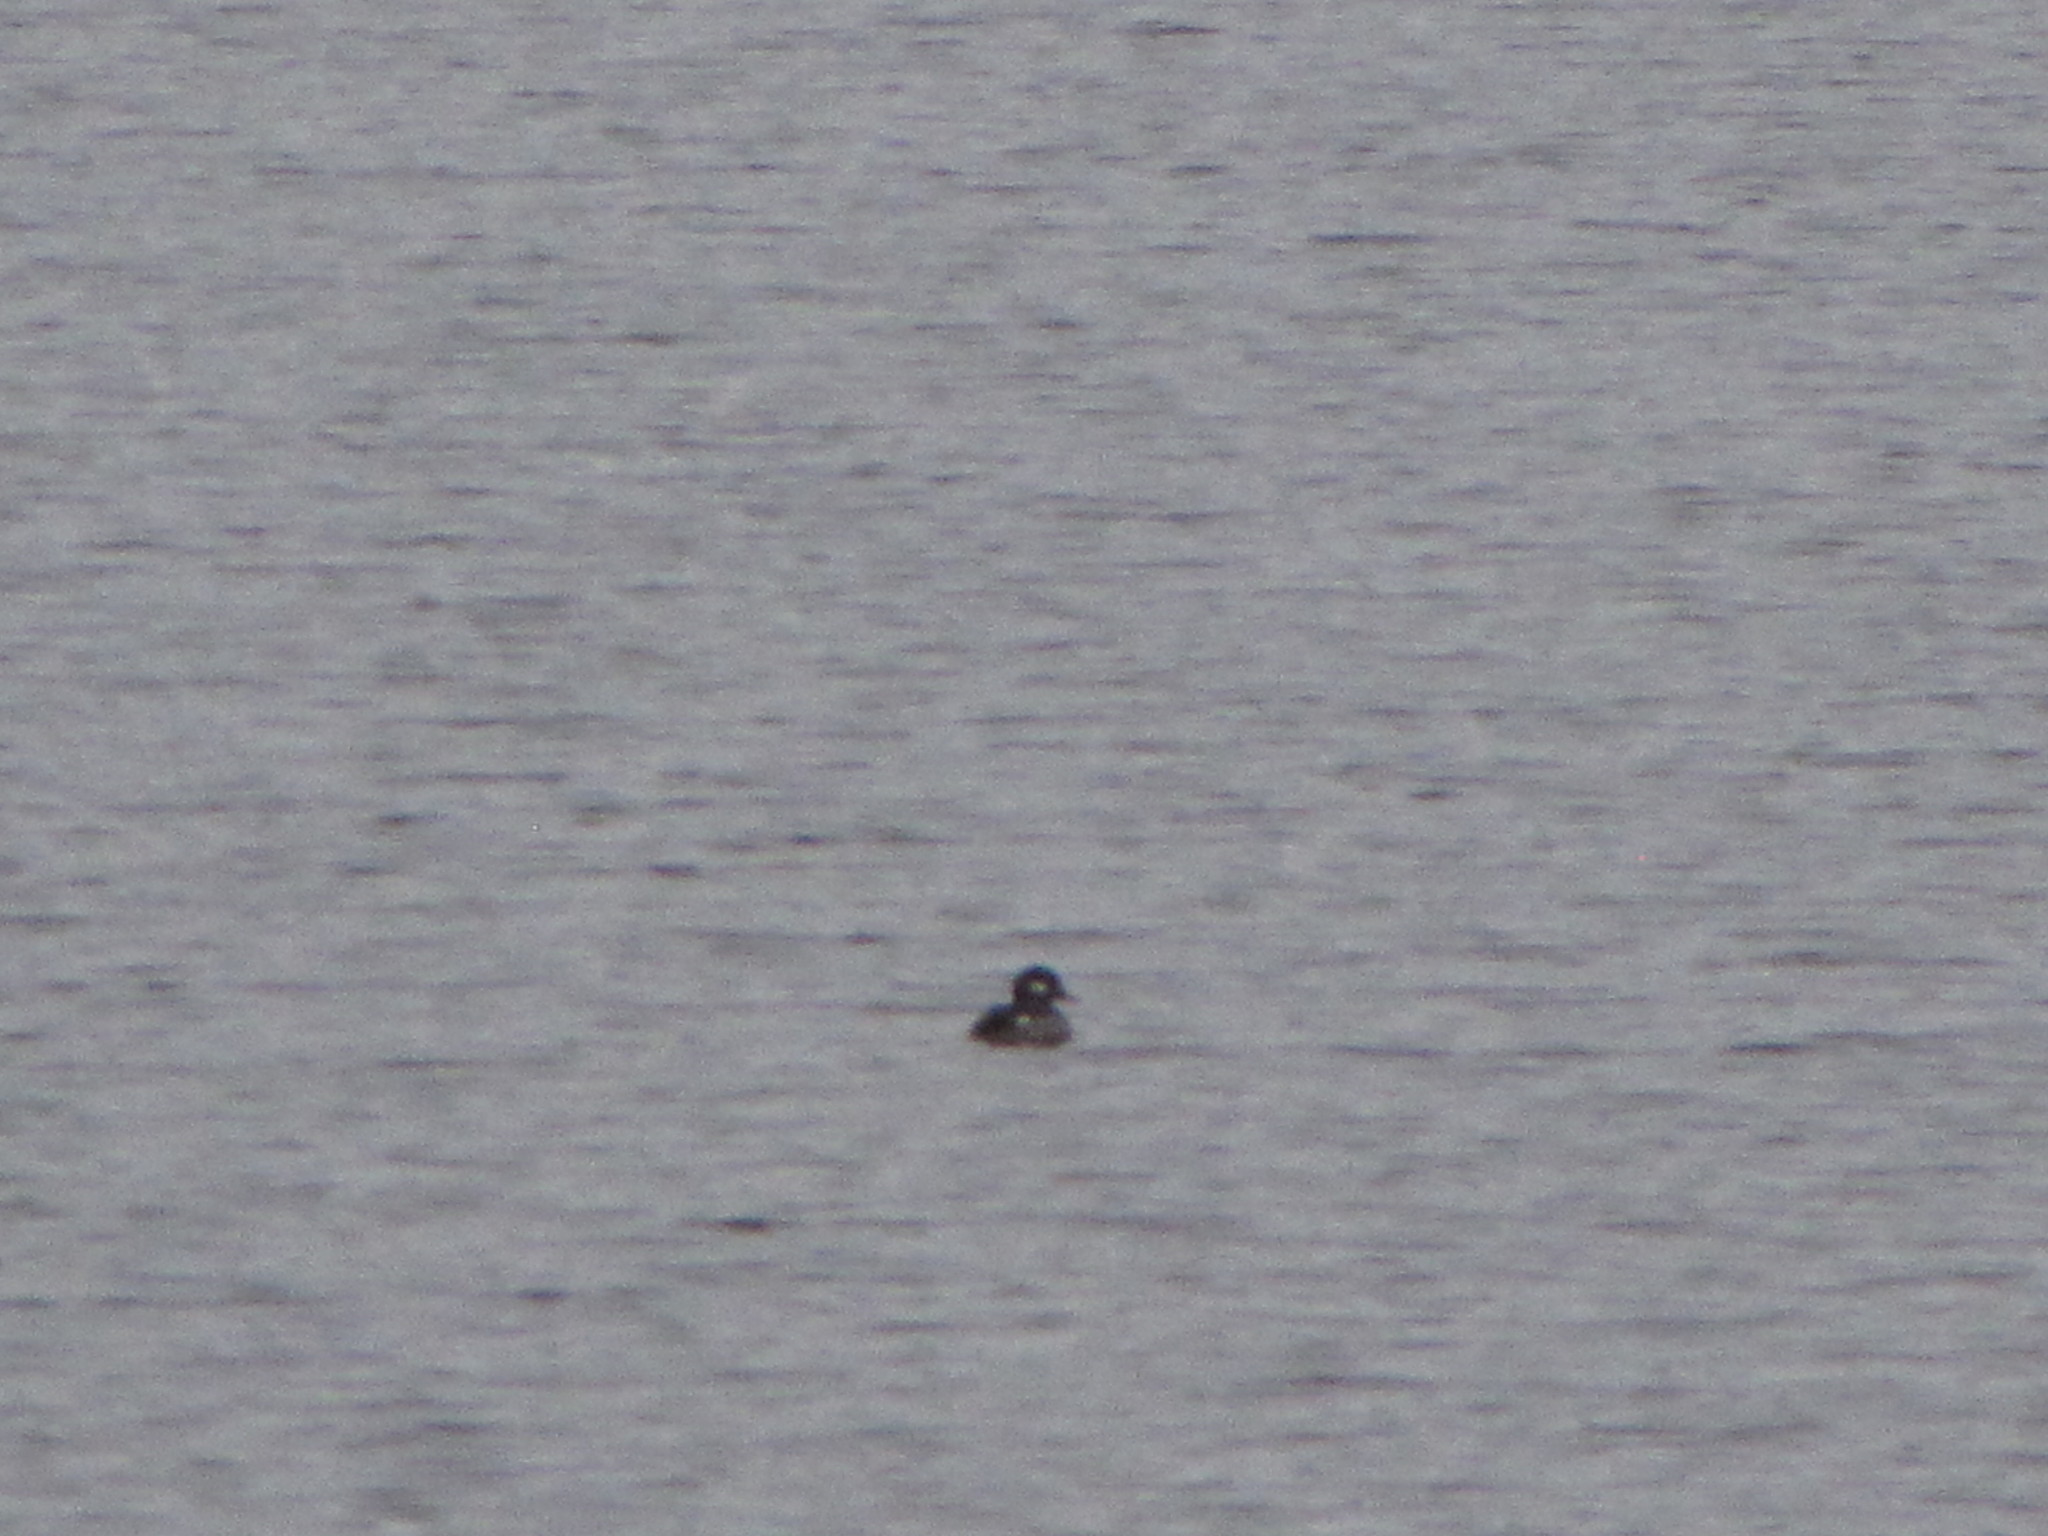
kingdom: Animalia
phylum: Chordata
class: Aves
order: Anseriformes
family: Anatidae
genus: Bucephala
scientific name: Bucephala albeola
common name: Bufflehead
